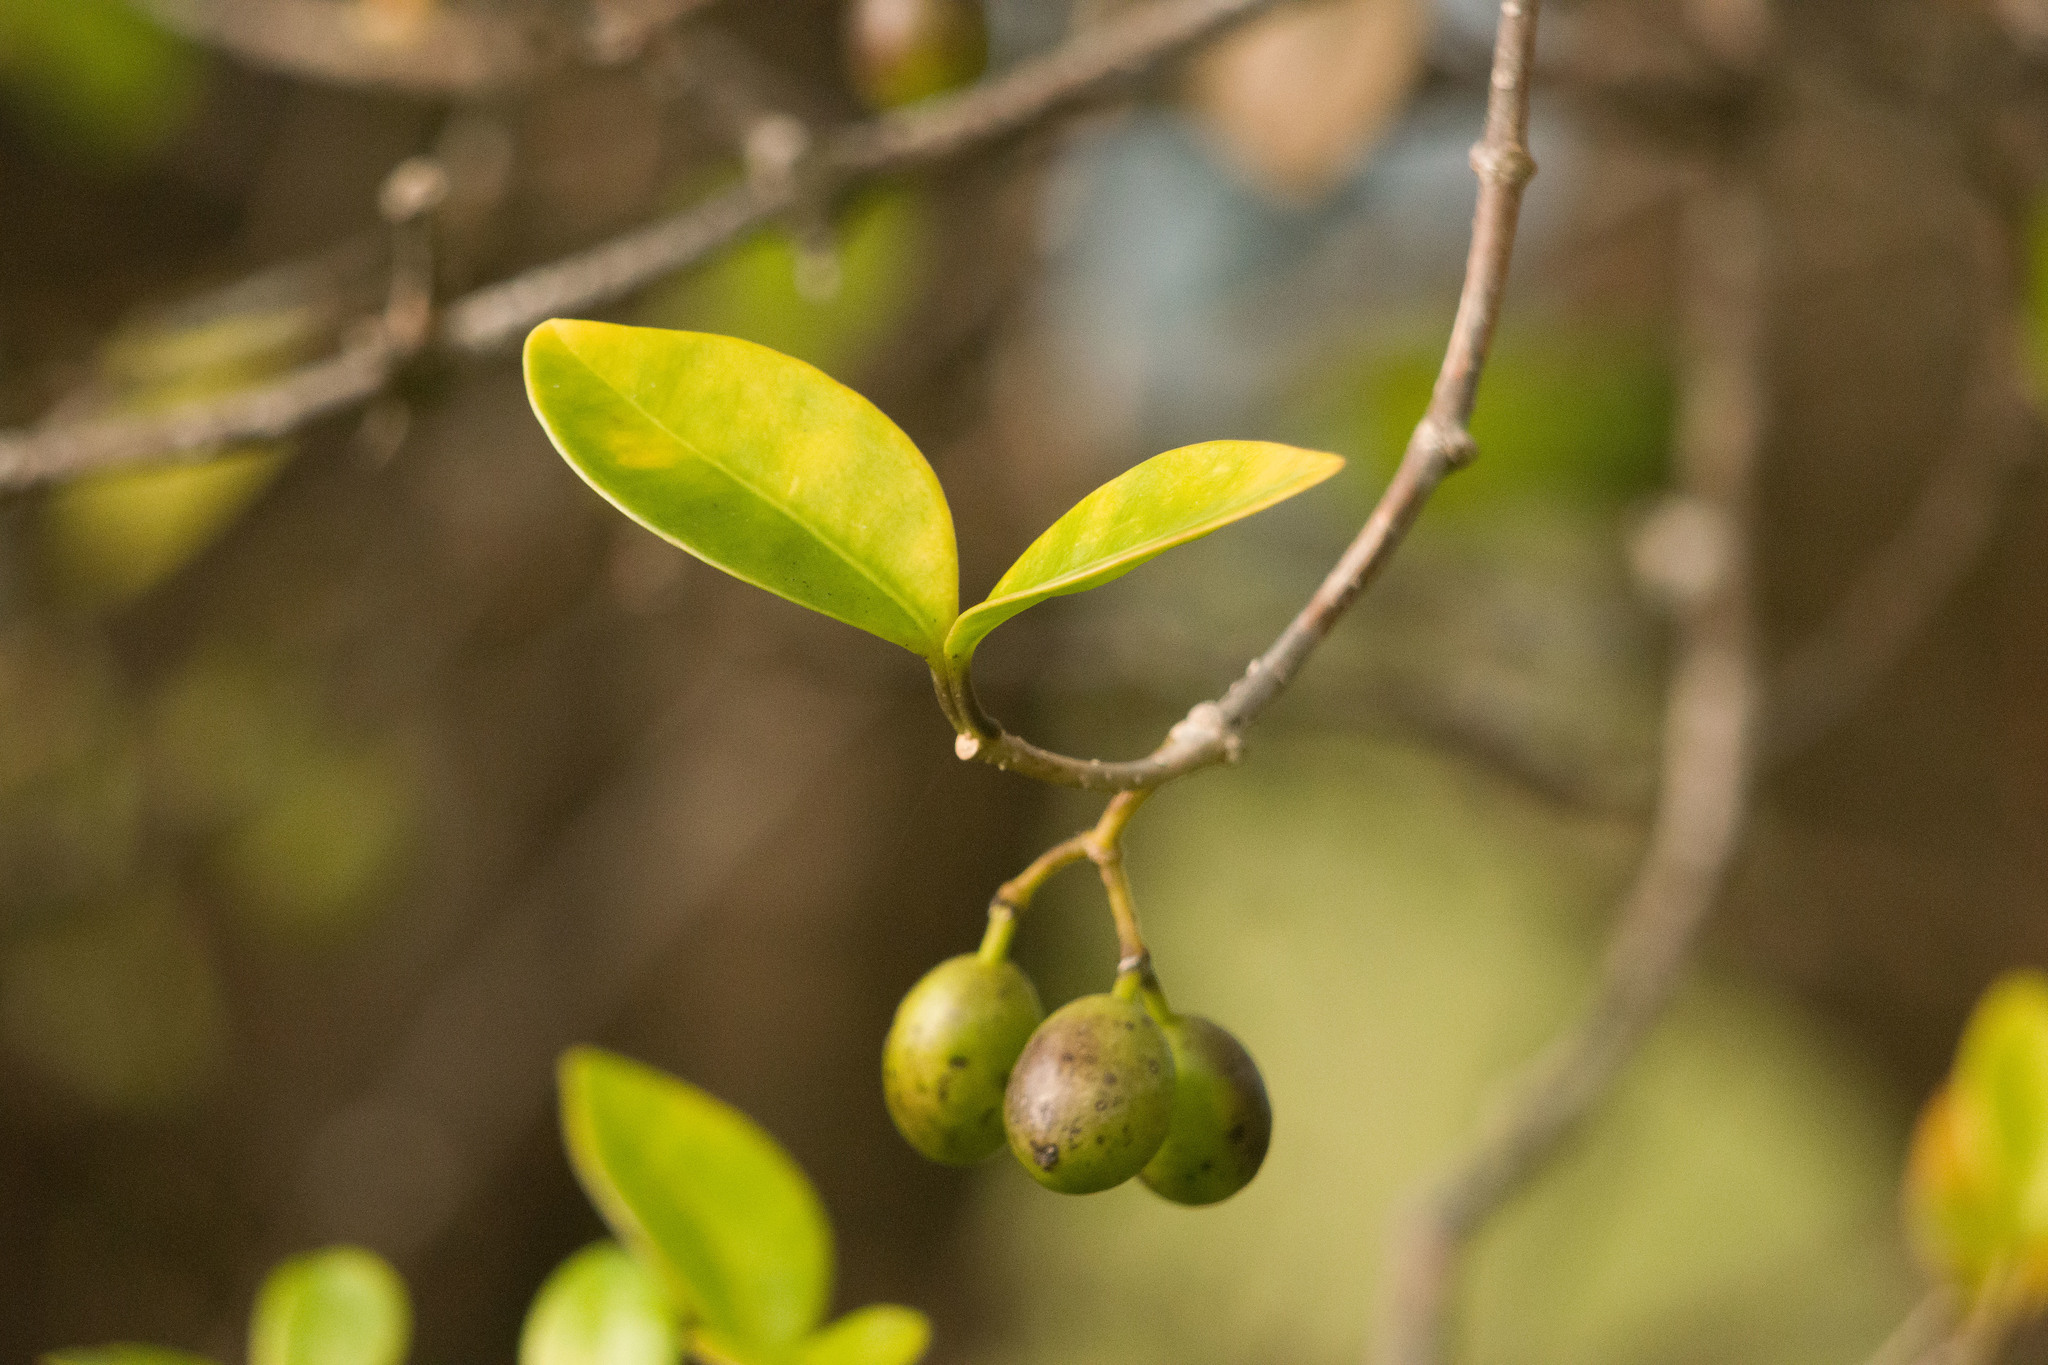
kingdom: Plantae
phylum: Tracheophyta
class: Magnoliopsida
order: Gentianales
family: Apocynaceae
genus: Alyxia
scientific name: Alyxia stellata
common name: Maile
